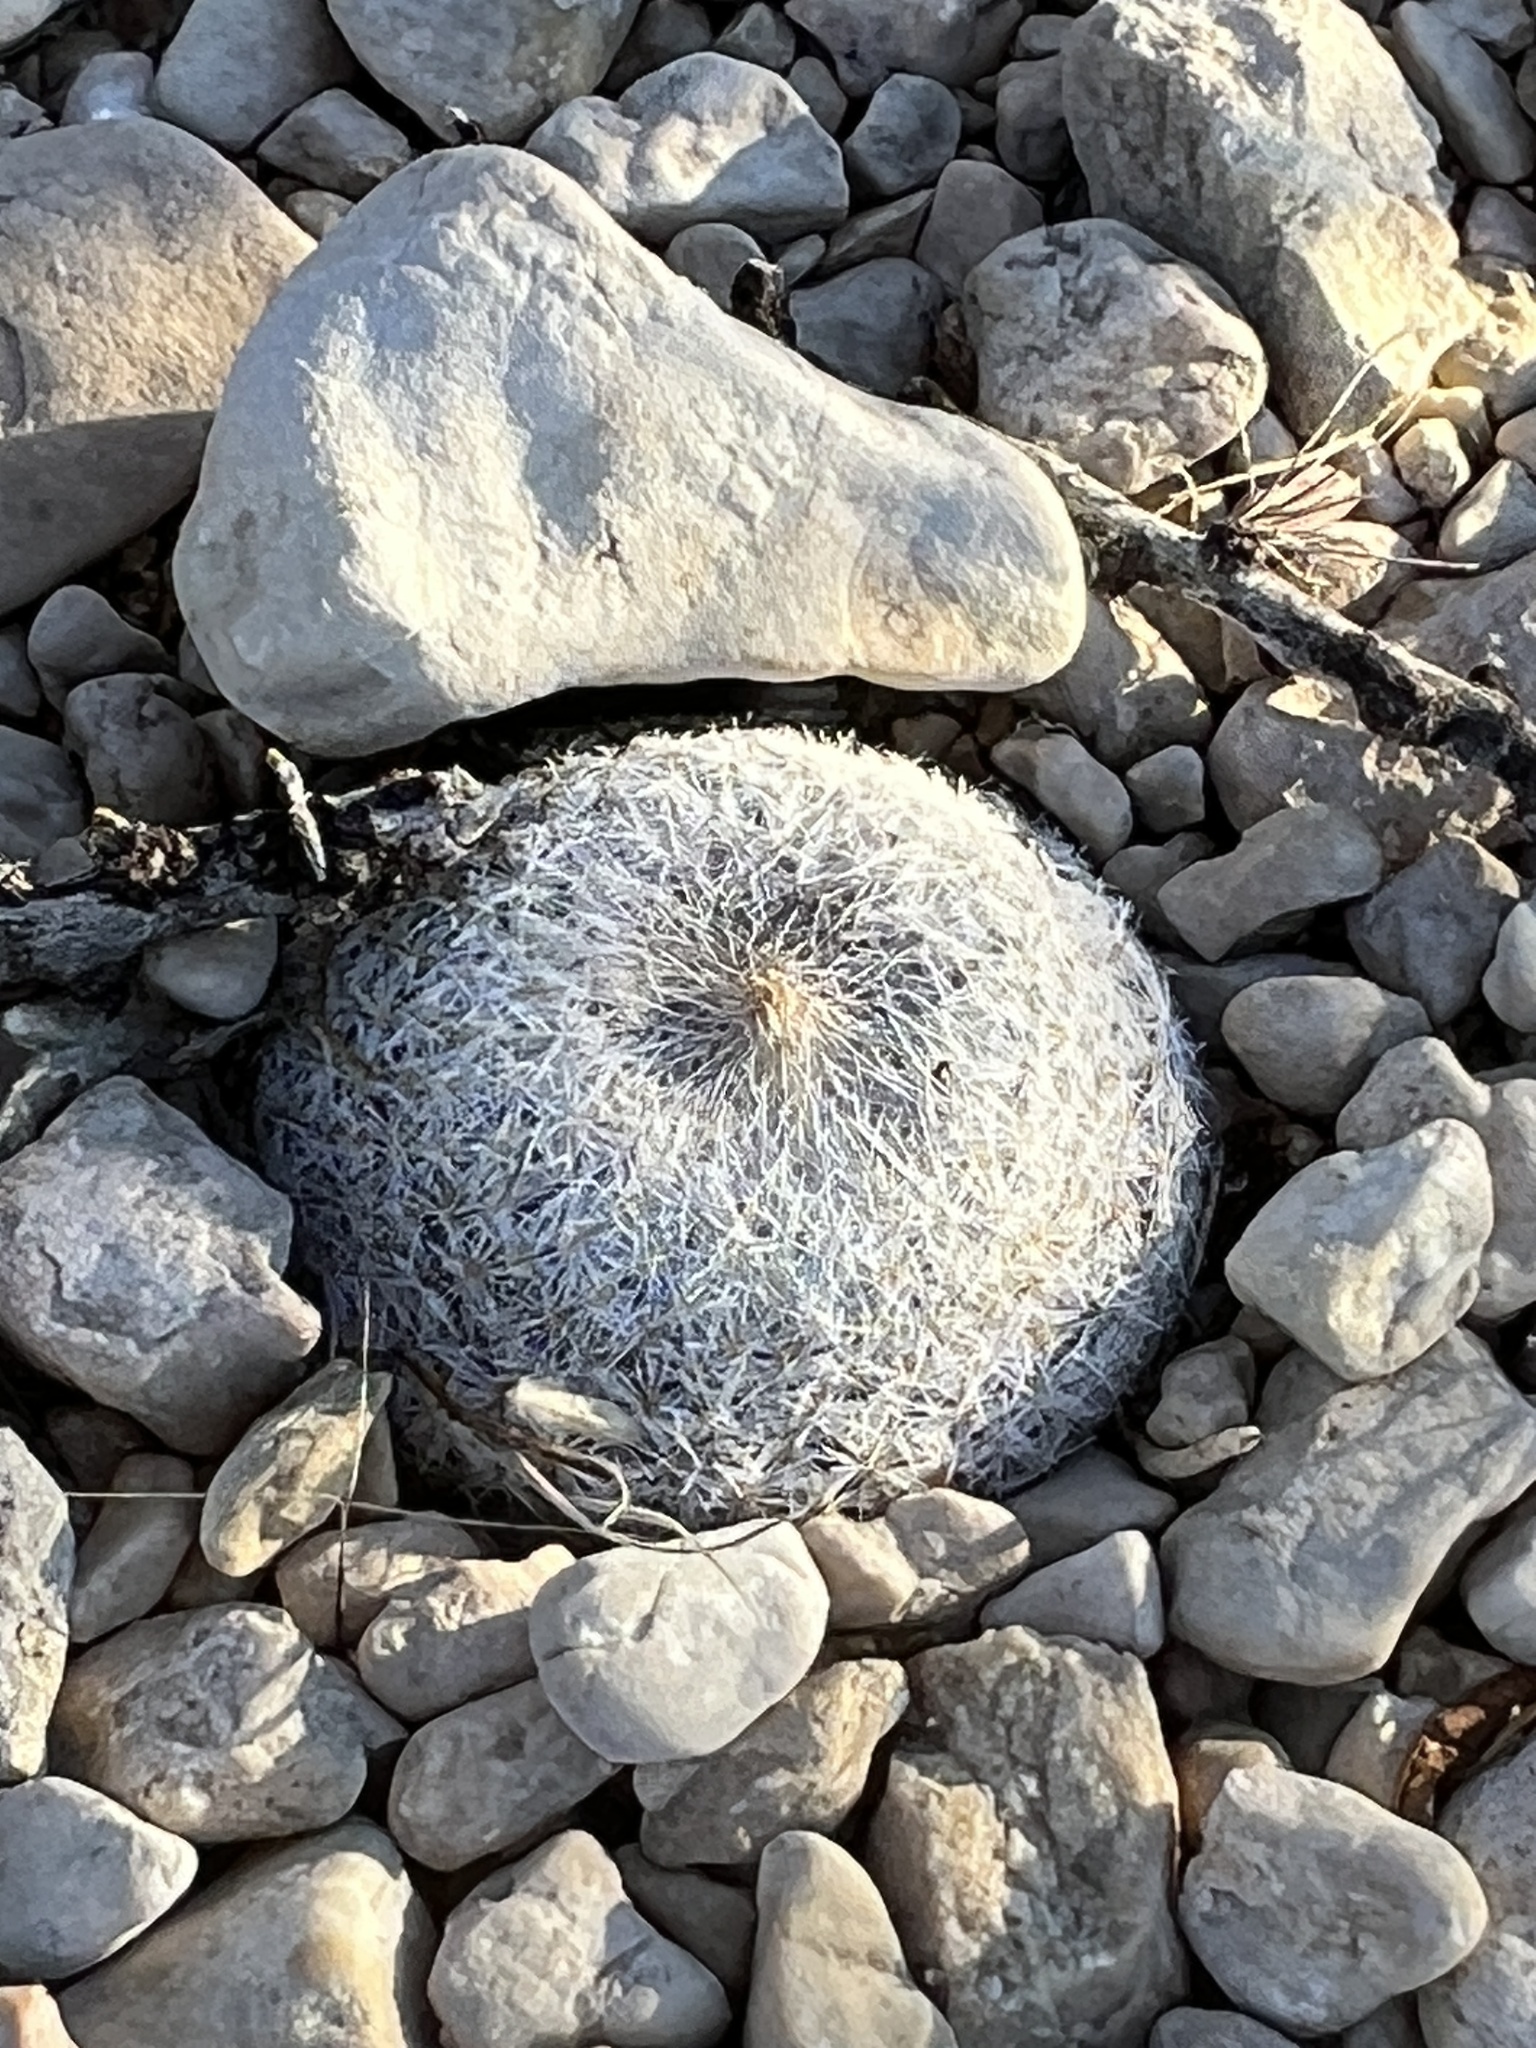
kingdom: Plantae
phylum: Tracheophyta
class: Magnoliopsida
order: Caryophyllales
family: Cactaceae
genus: Epithelantha
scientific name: Epithelantha micromeris
